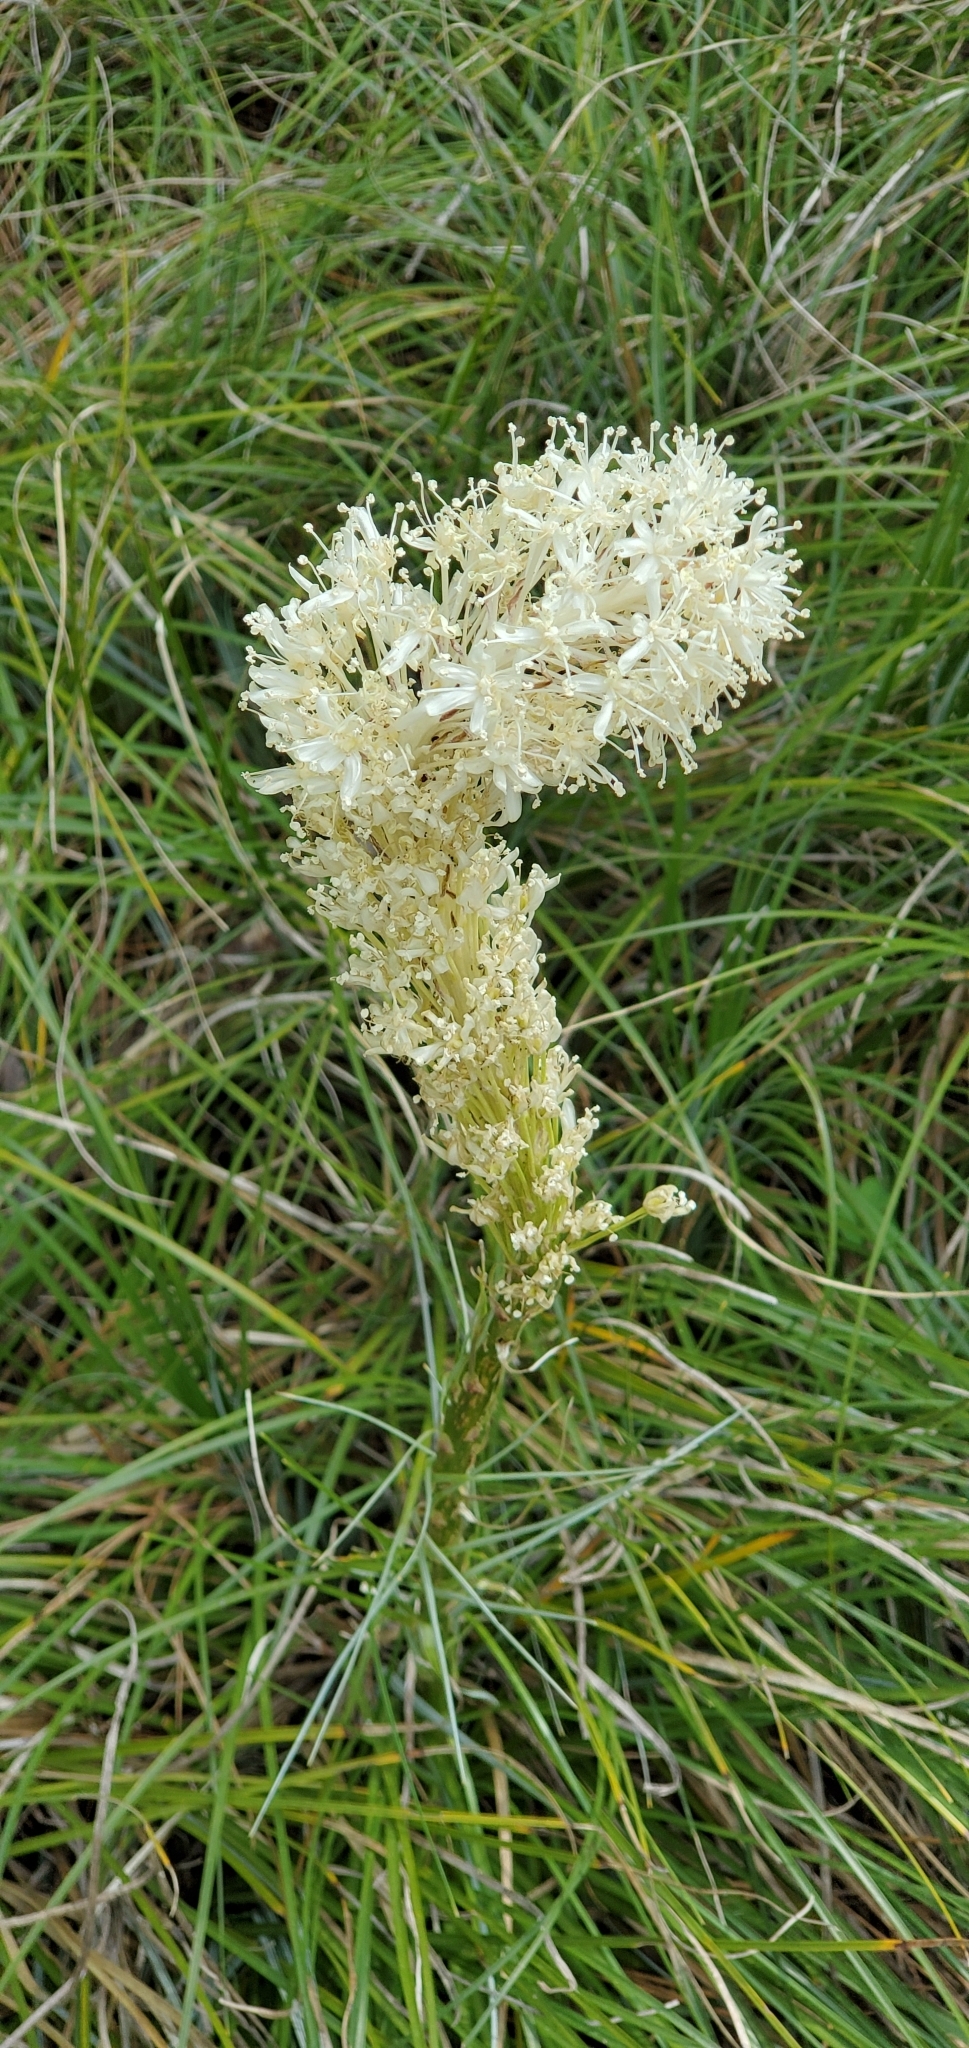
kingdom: Plantae
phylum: Tracheophyta
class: Liliopsida
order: Liliales
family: Melanthiaceae
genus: Xerophyllum
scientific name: Xerophyllum tenax
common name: Bear-grass
